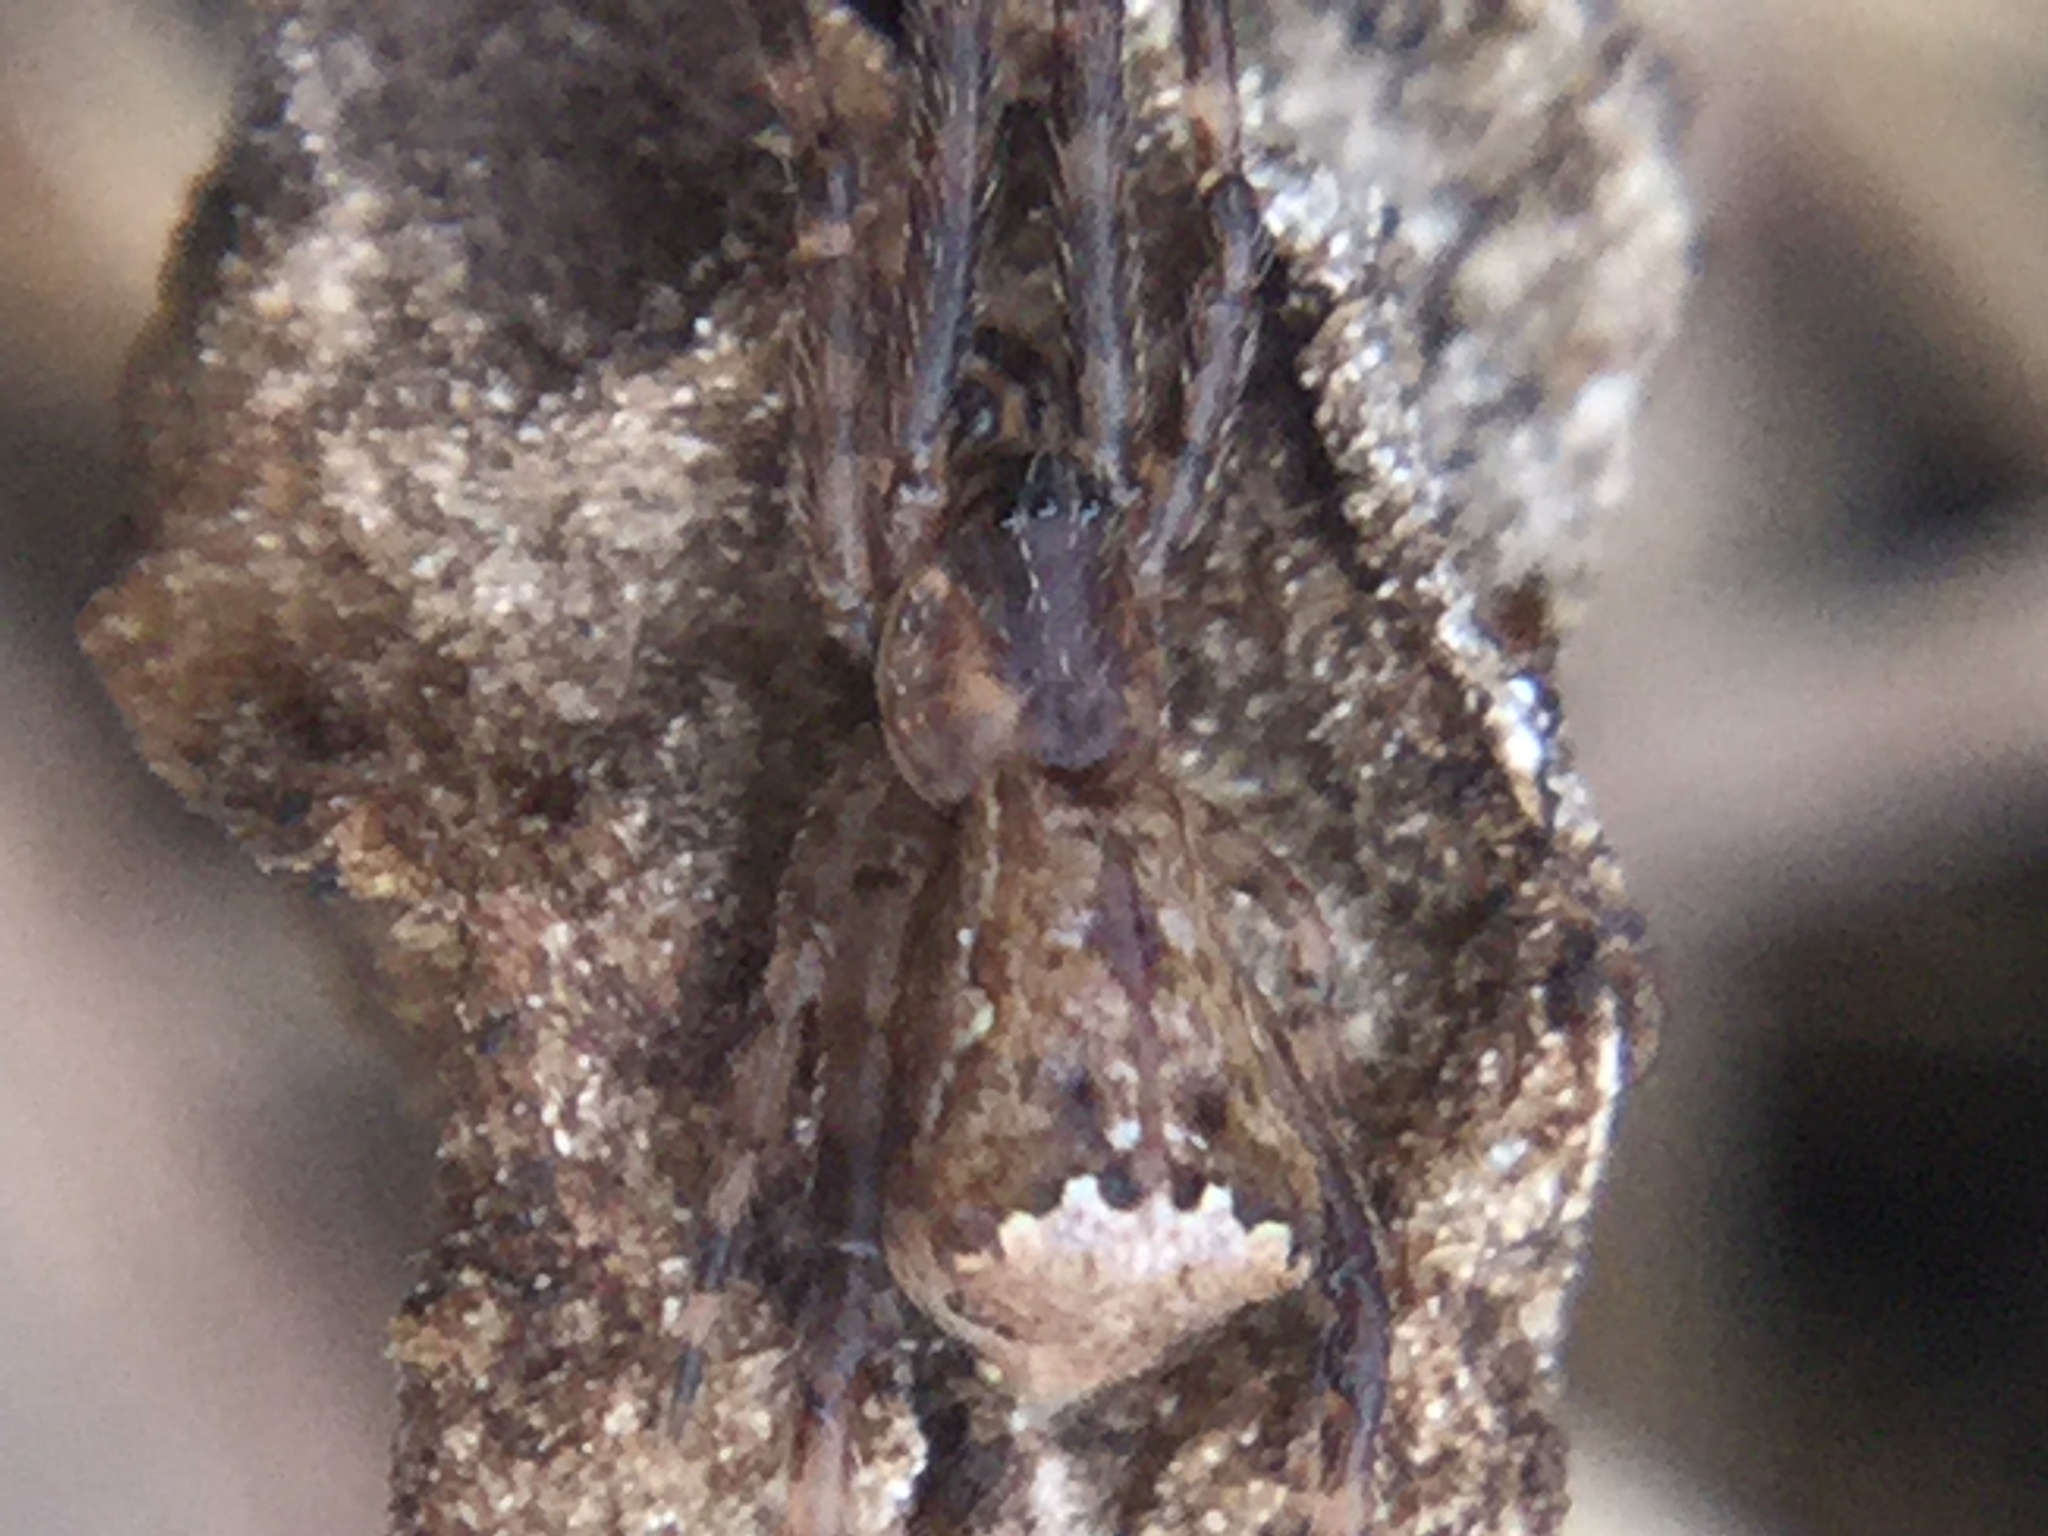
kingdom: Animalia
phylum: Arthropoda
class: Arachnida
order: Araneae
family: Theridiidae
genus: Episinus
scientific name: Episinus amoenus
